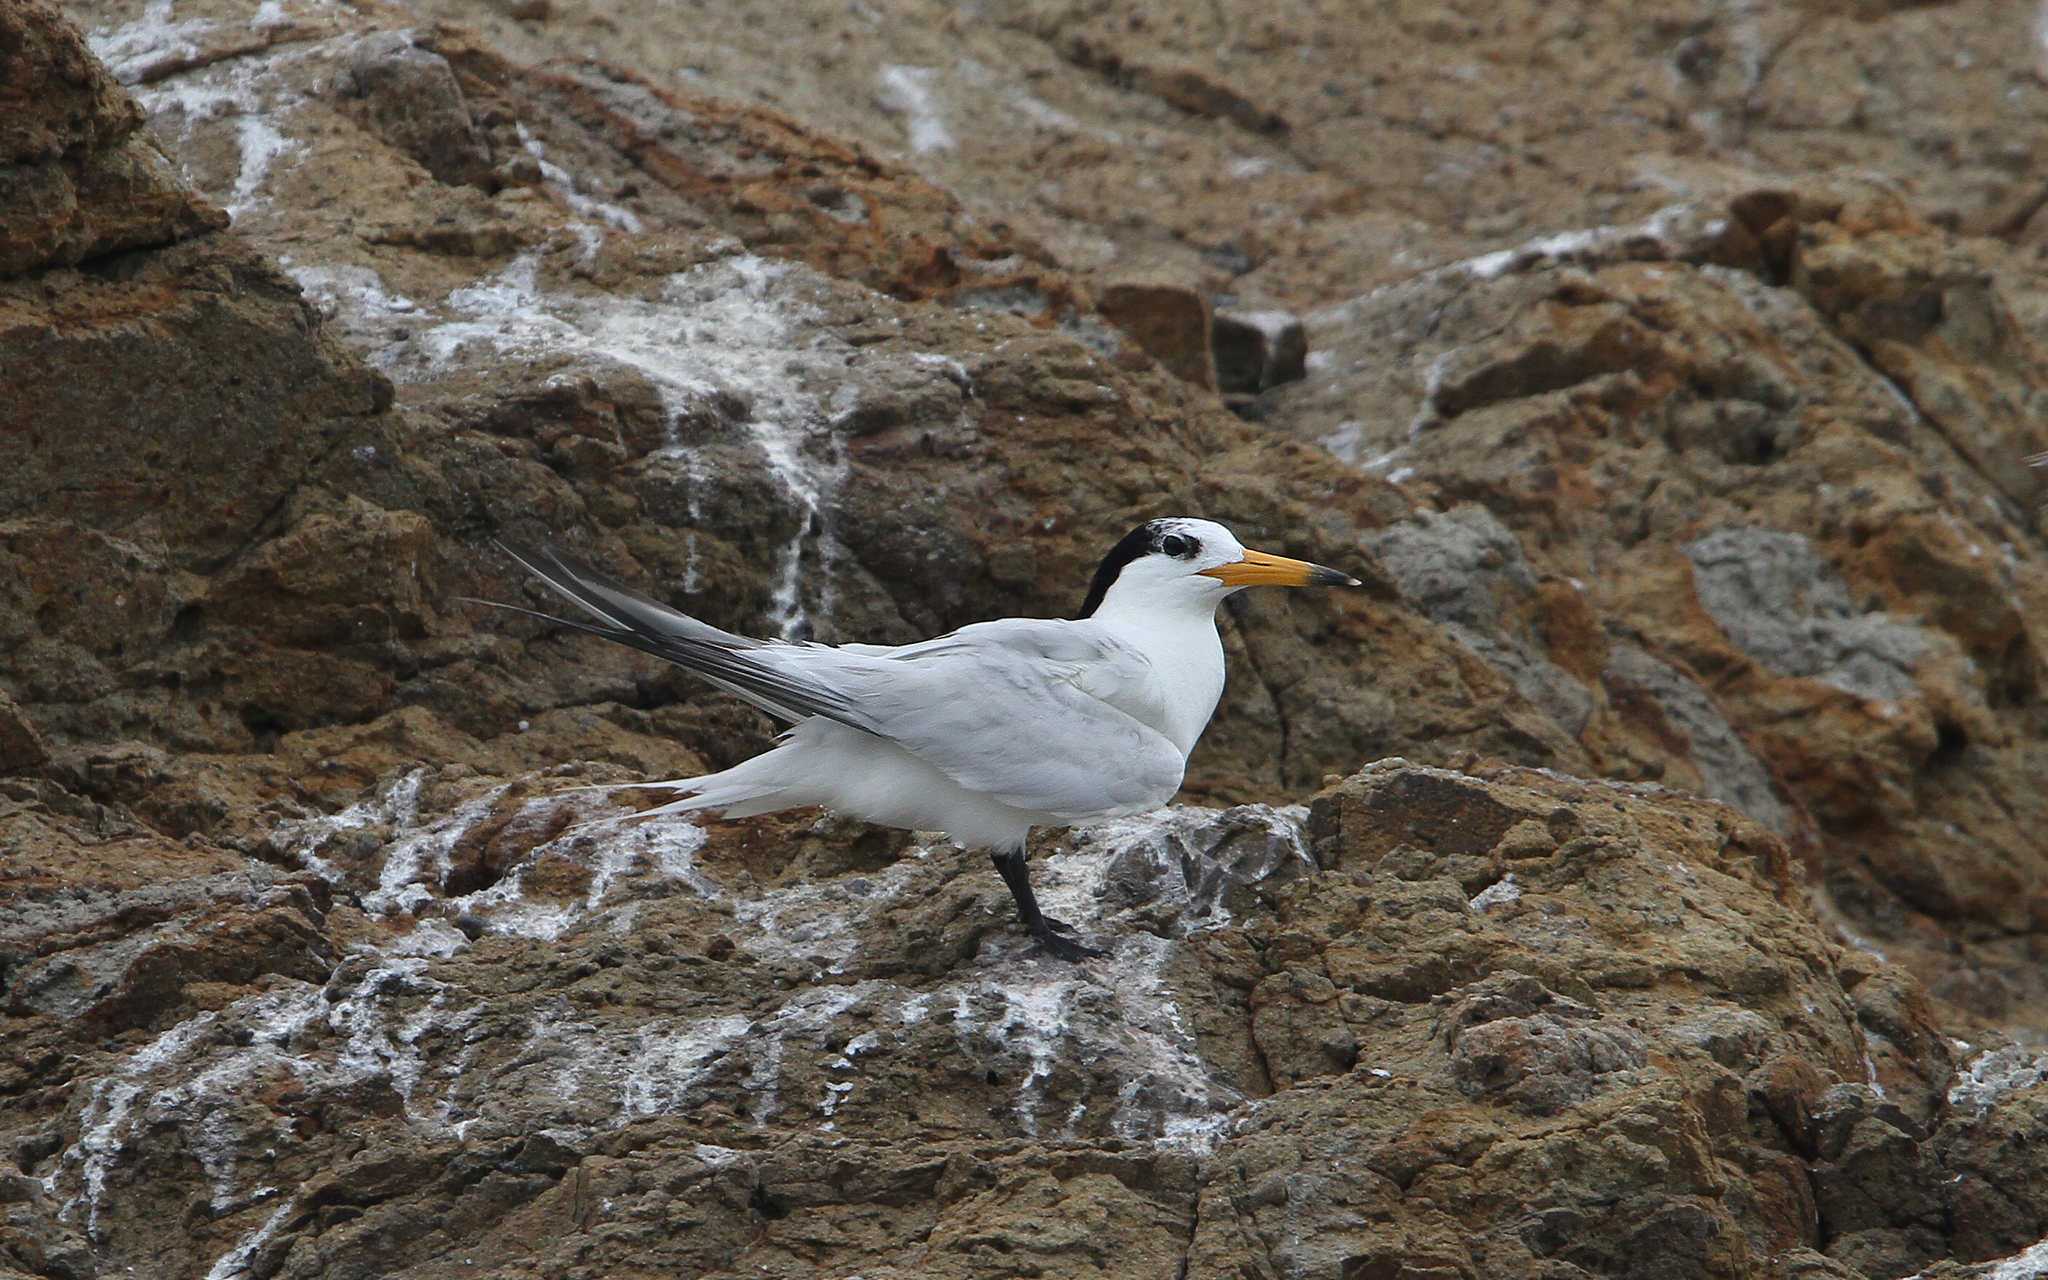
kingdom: Animalia
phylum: Chordata
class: Aves
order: Charadriiformes
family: Laridae
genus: Thalasseus
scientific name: Thalasseus bernsteini
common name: Chinese crested tern
